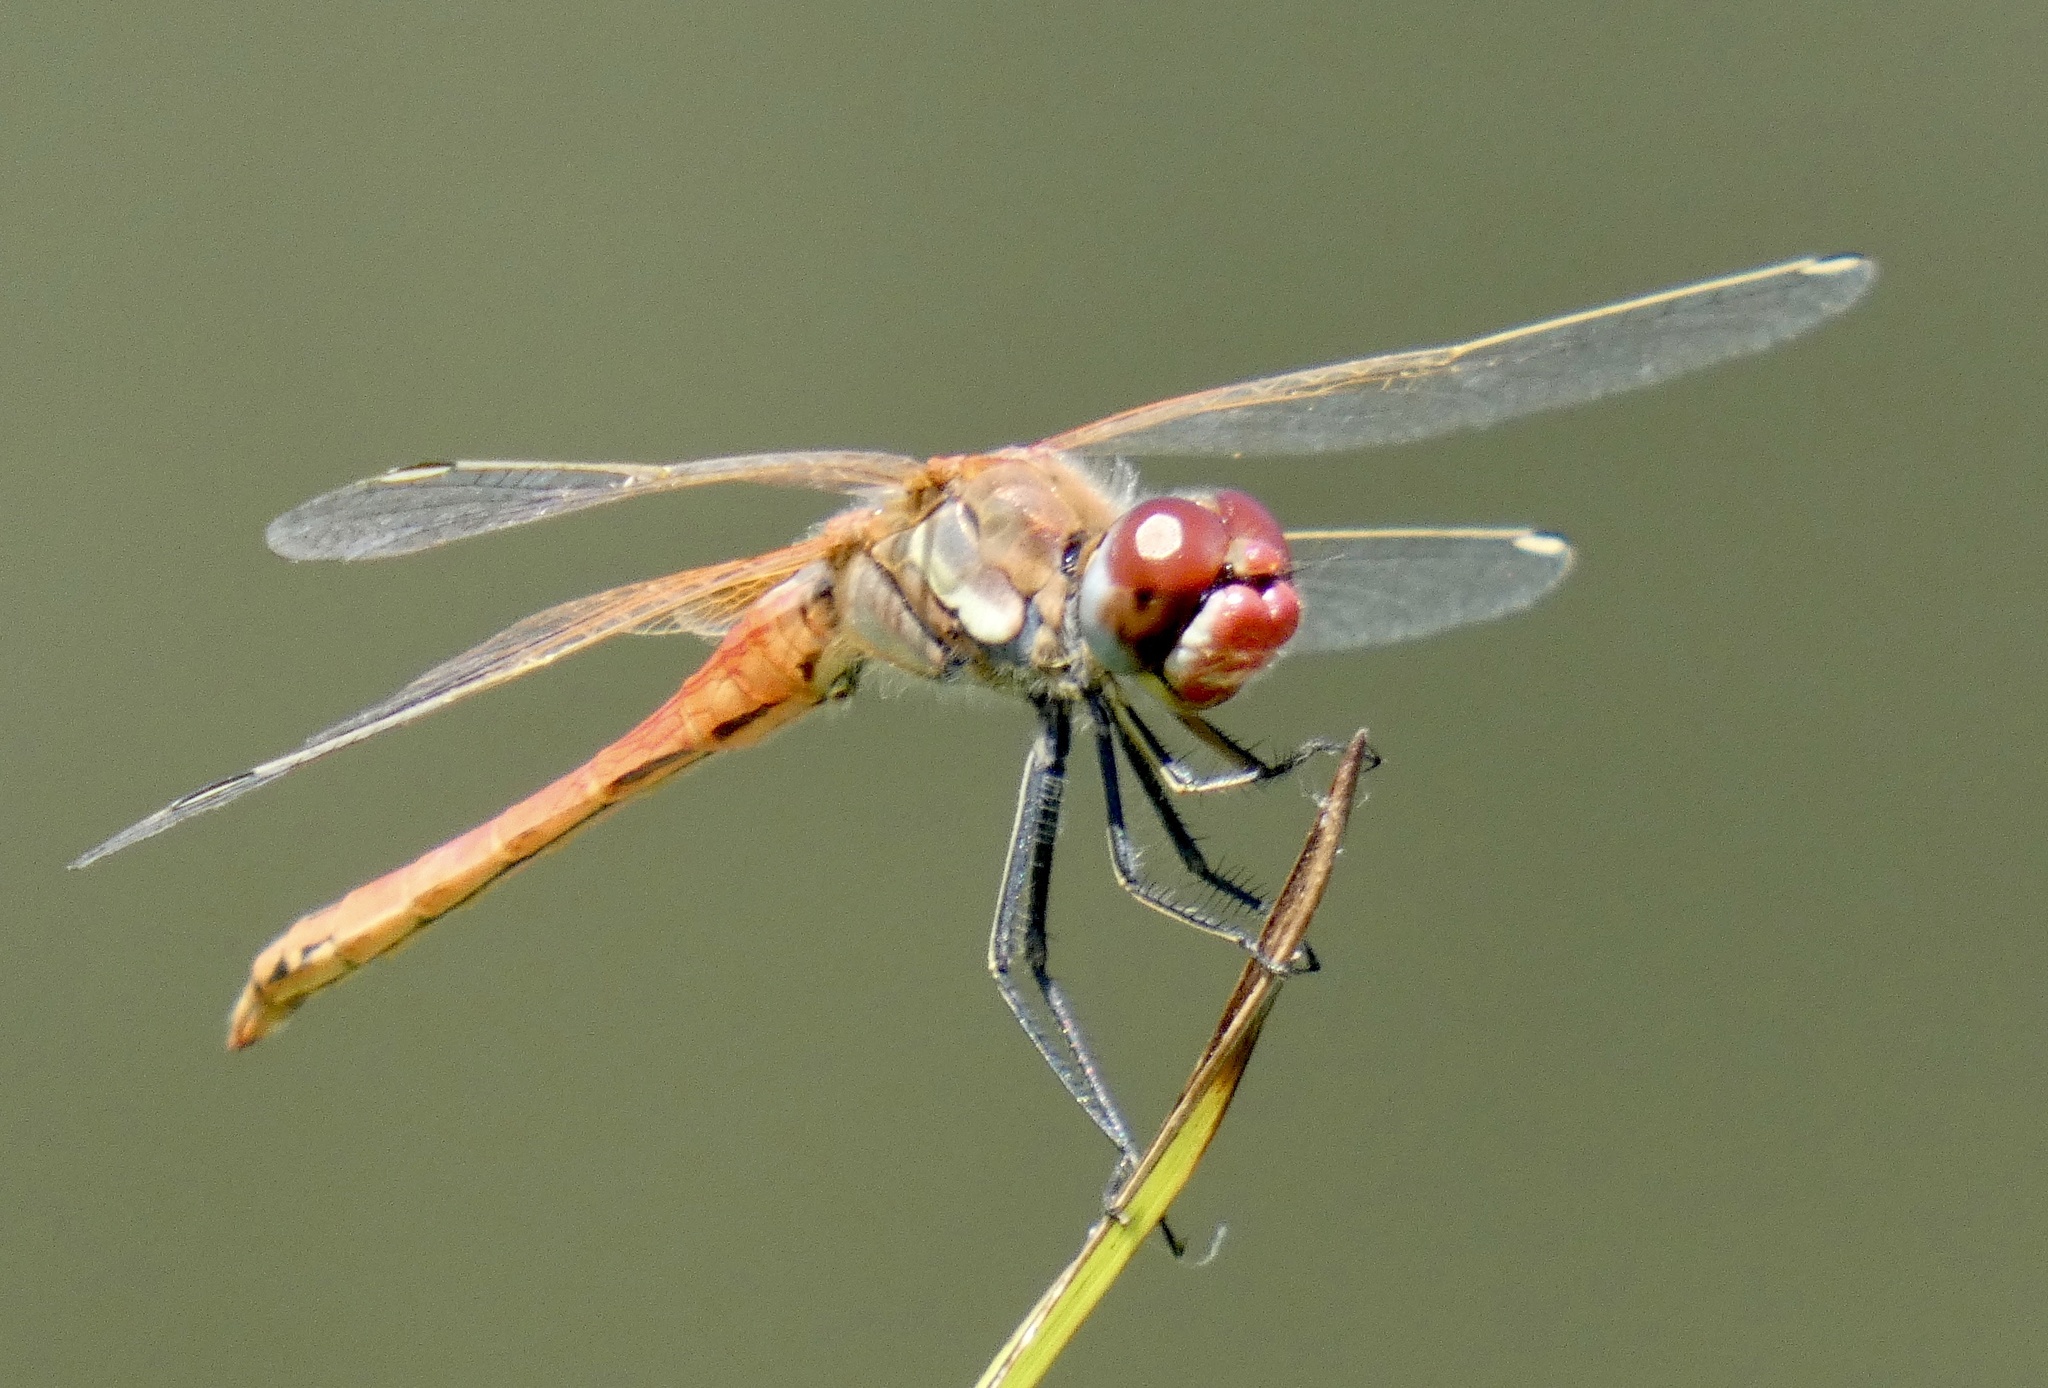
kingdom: Animalia
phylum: Arthropoda
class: Insecta
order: Odonata
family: Libellulidae
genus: Sympetrum
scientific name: Sympetrum fonscolombii
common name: Red-veined darter
